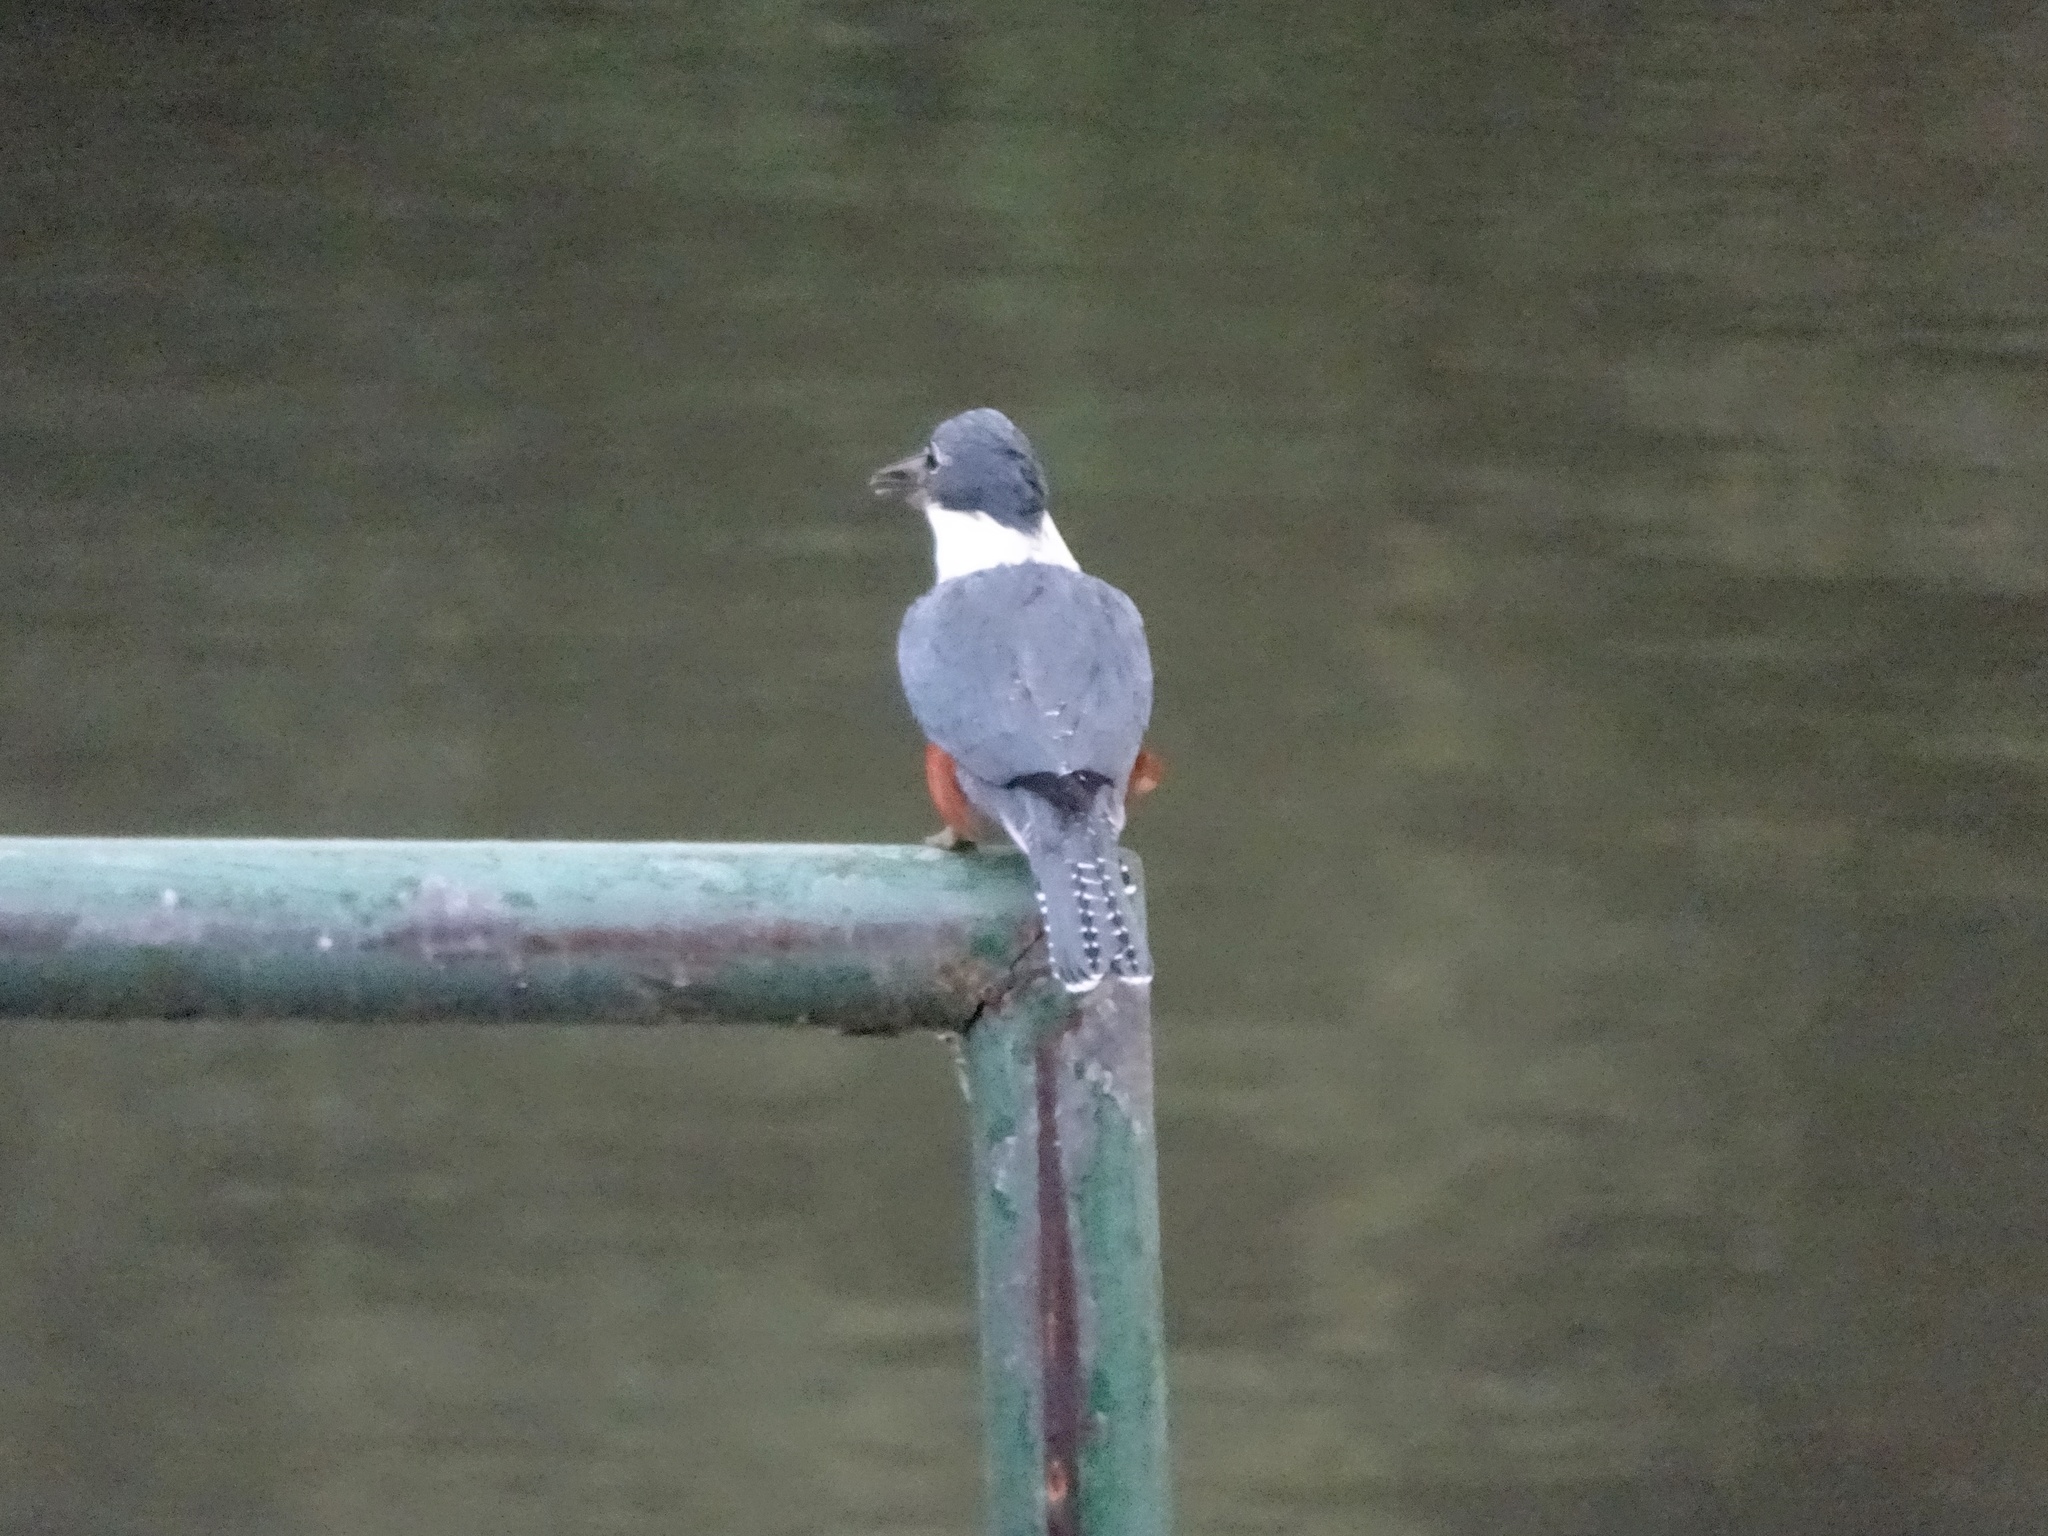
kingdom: Animalia
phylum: Chordata
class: Aves
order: Coraciiformes
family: Alcedinidae
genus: Megaceryle
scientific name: Megaceryle torquata
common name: Ringed kingfisher
